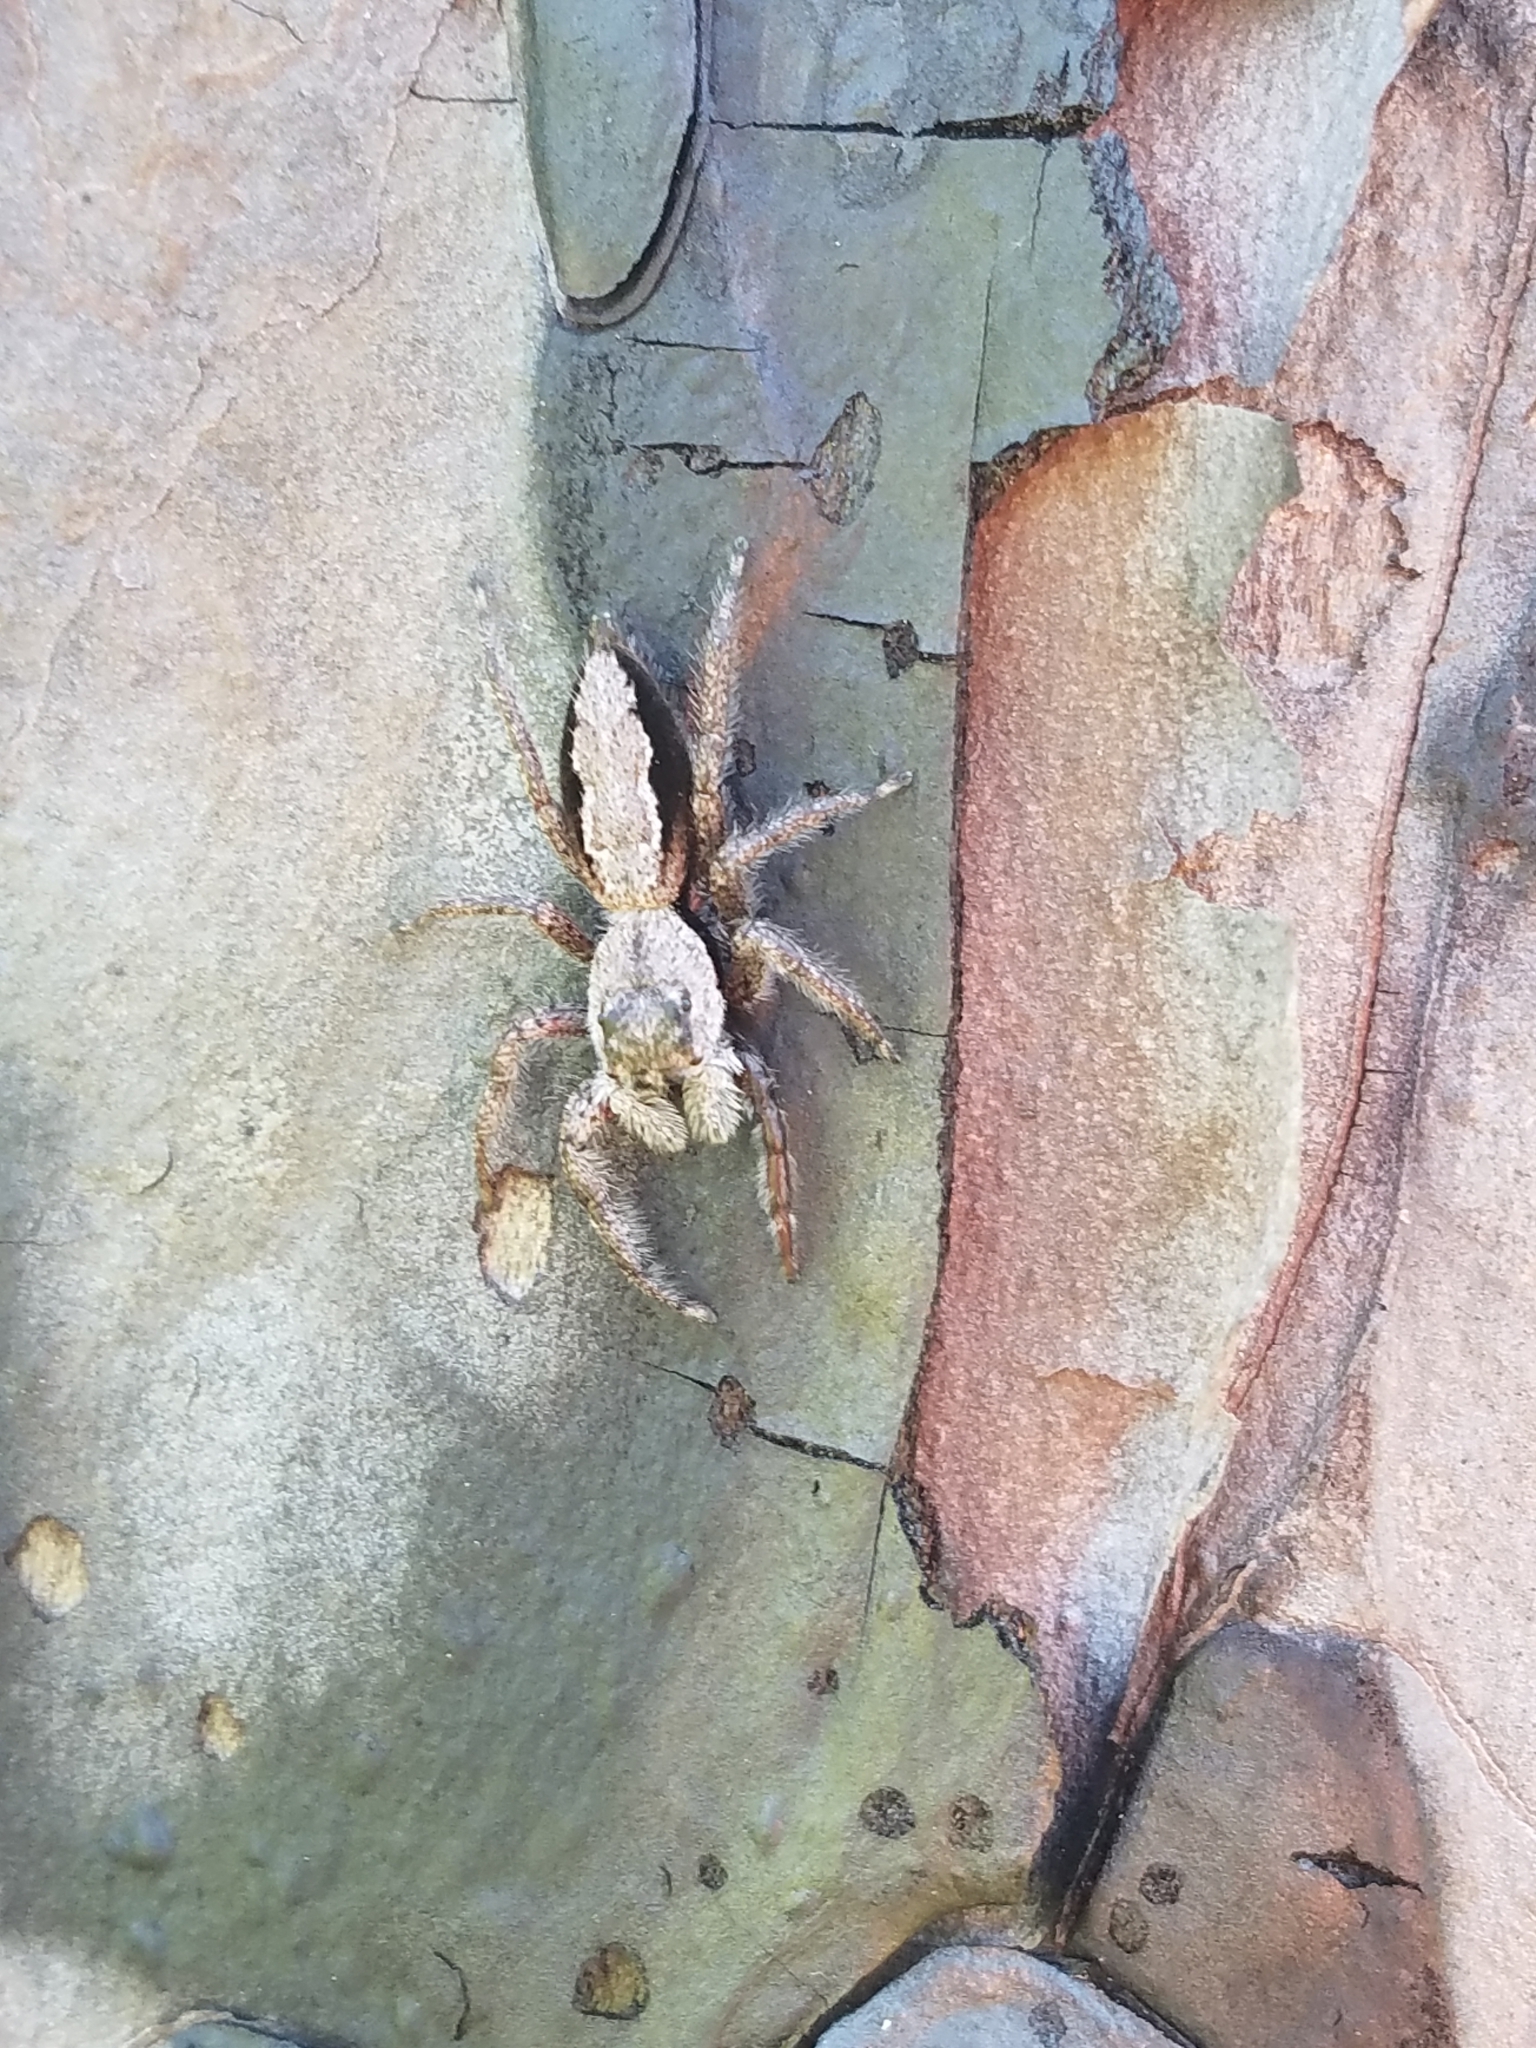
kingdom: Animalia
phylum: Arthropoda
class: Arachnida
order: Araneae
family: Salticidae
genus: Platycryptus
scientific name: Platycryptus undatus
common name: Tan jumping spider
